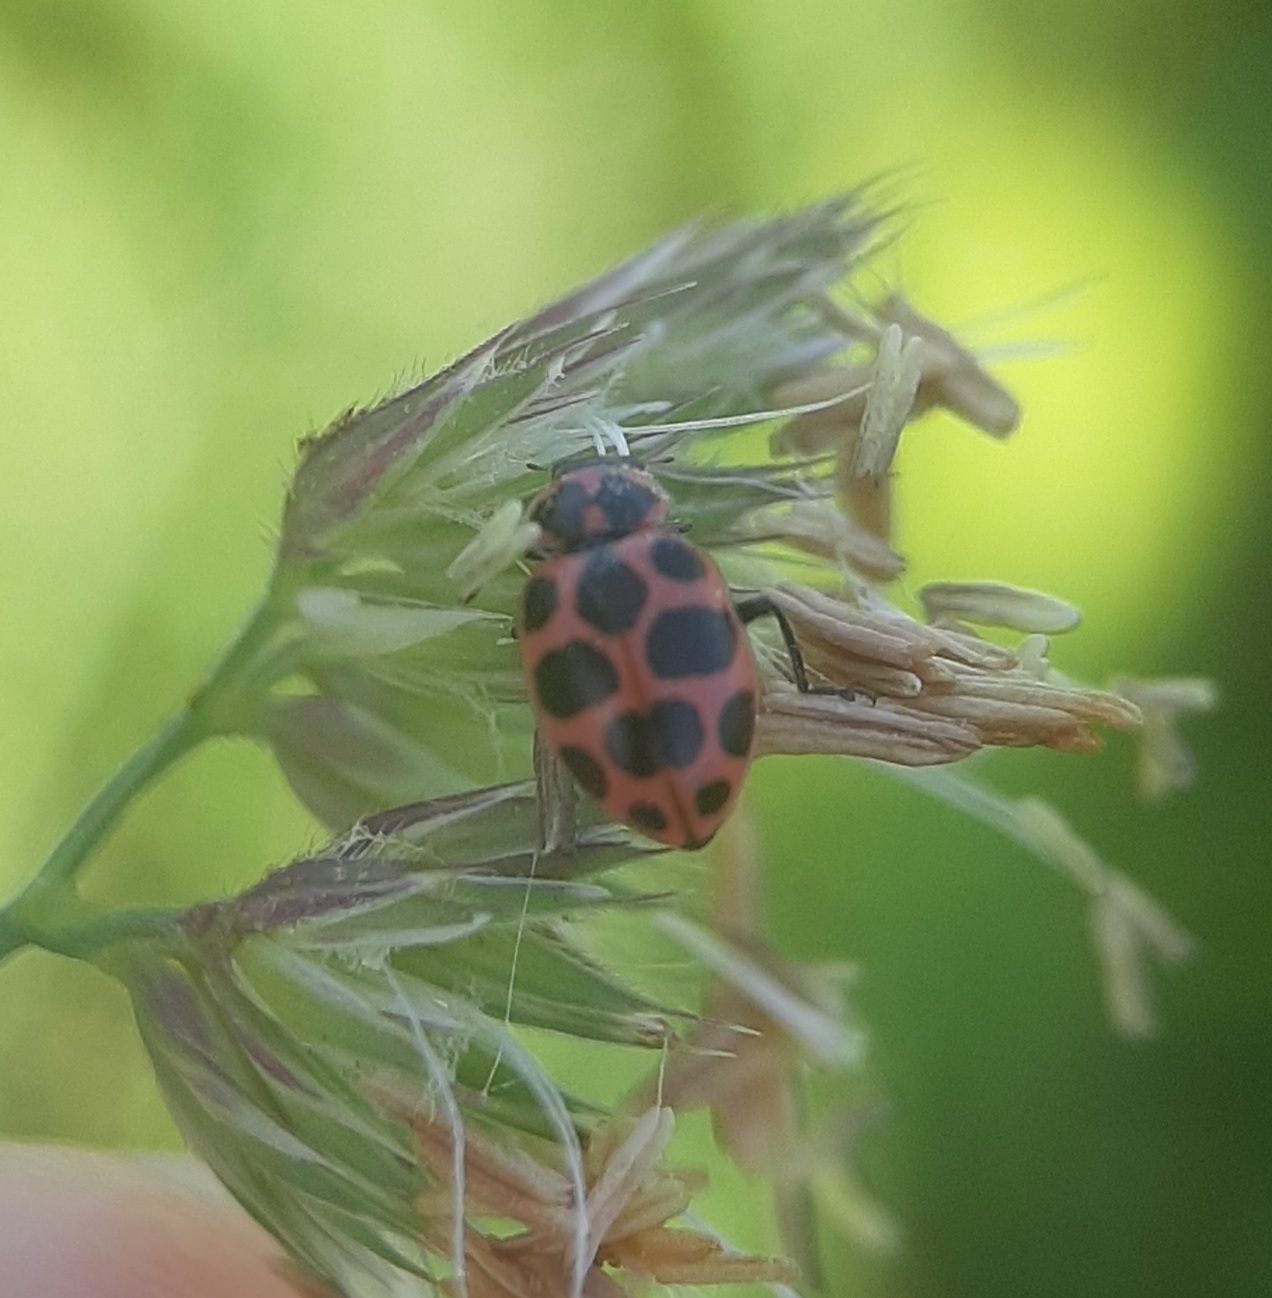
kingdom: Animalia
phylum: Arthropoda
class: Insecta
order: Coleoptera
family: Coccinellidae
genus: Coleomegilla
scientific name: Coleomegilla maculata
